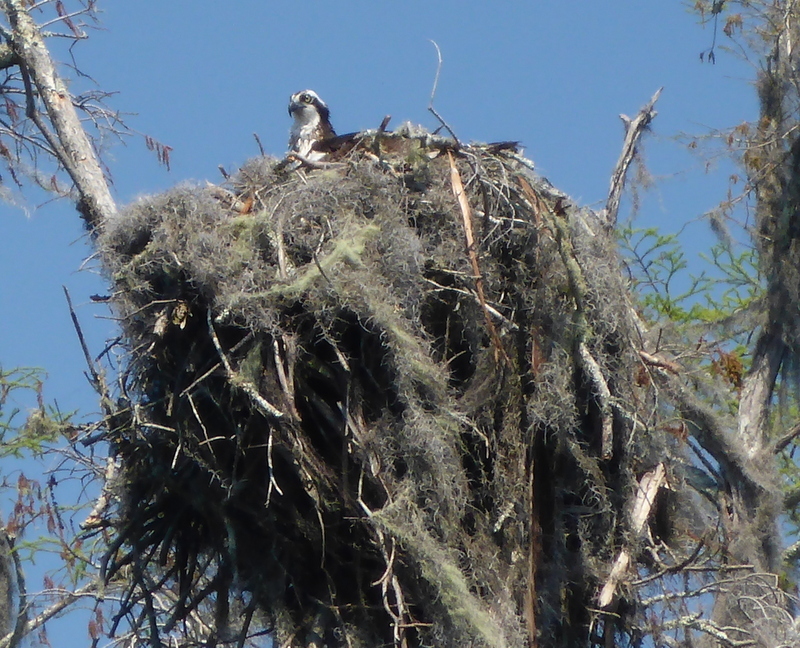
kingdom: Animalia
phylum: Chordata
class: Aves
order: Accipitriformes
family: Pandionidae
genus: Pandion
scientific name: Pandion haliaetus
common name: Osprey
